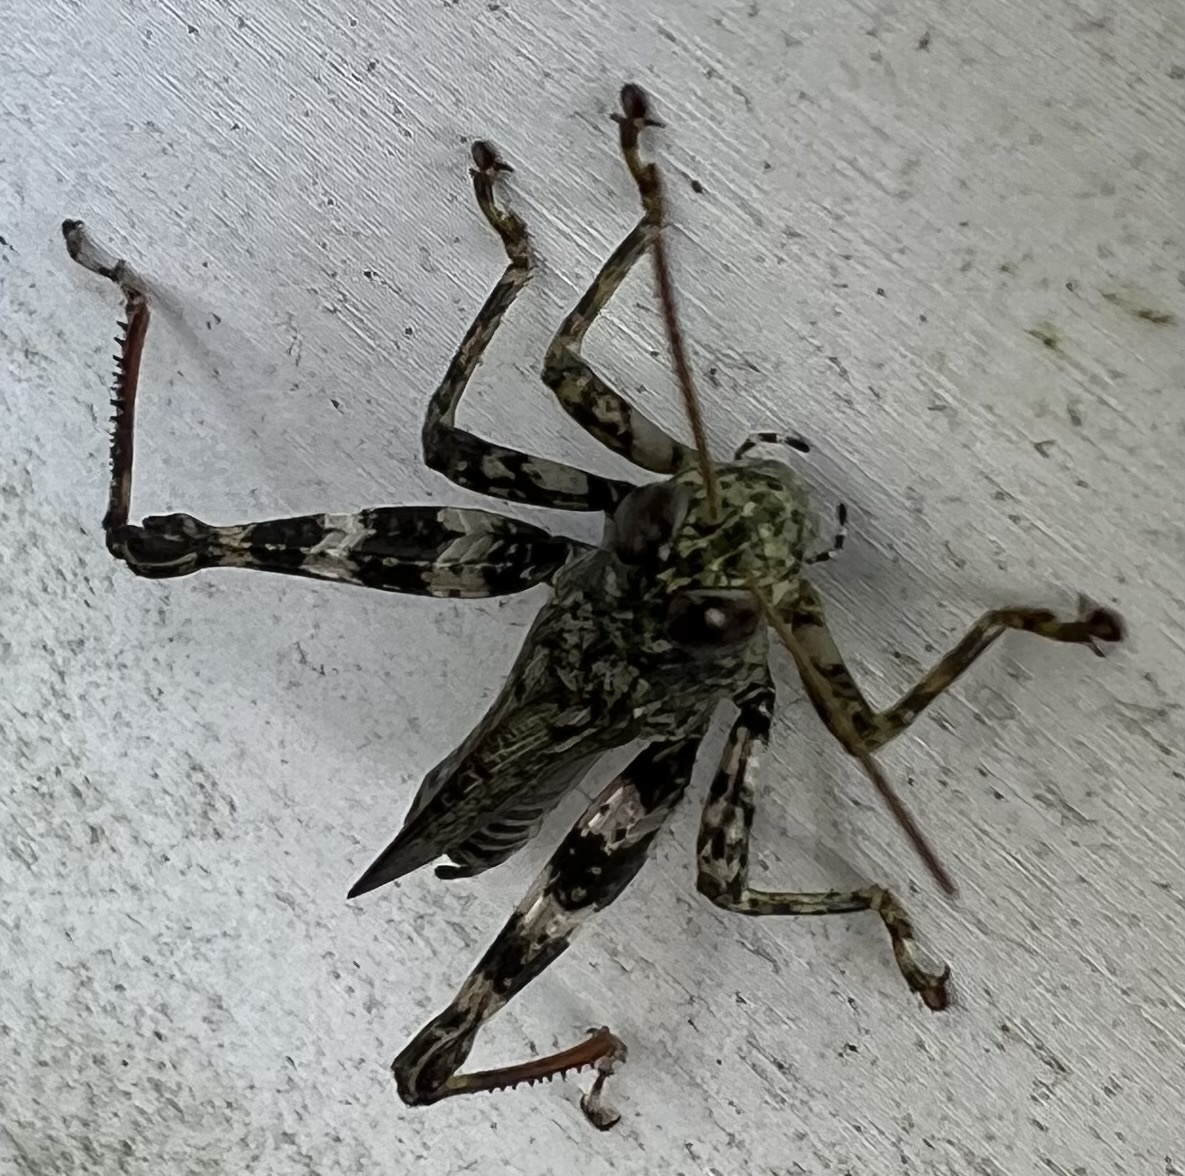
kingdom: Animalia
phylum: Arthropoda
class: Insecta
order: Orthoptera
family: Acrididae
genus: Melanoplus
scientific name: Melanoplus punctulatus
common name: Pine-tree spur-throat grasshopper
